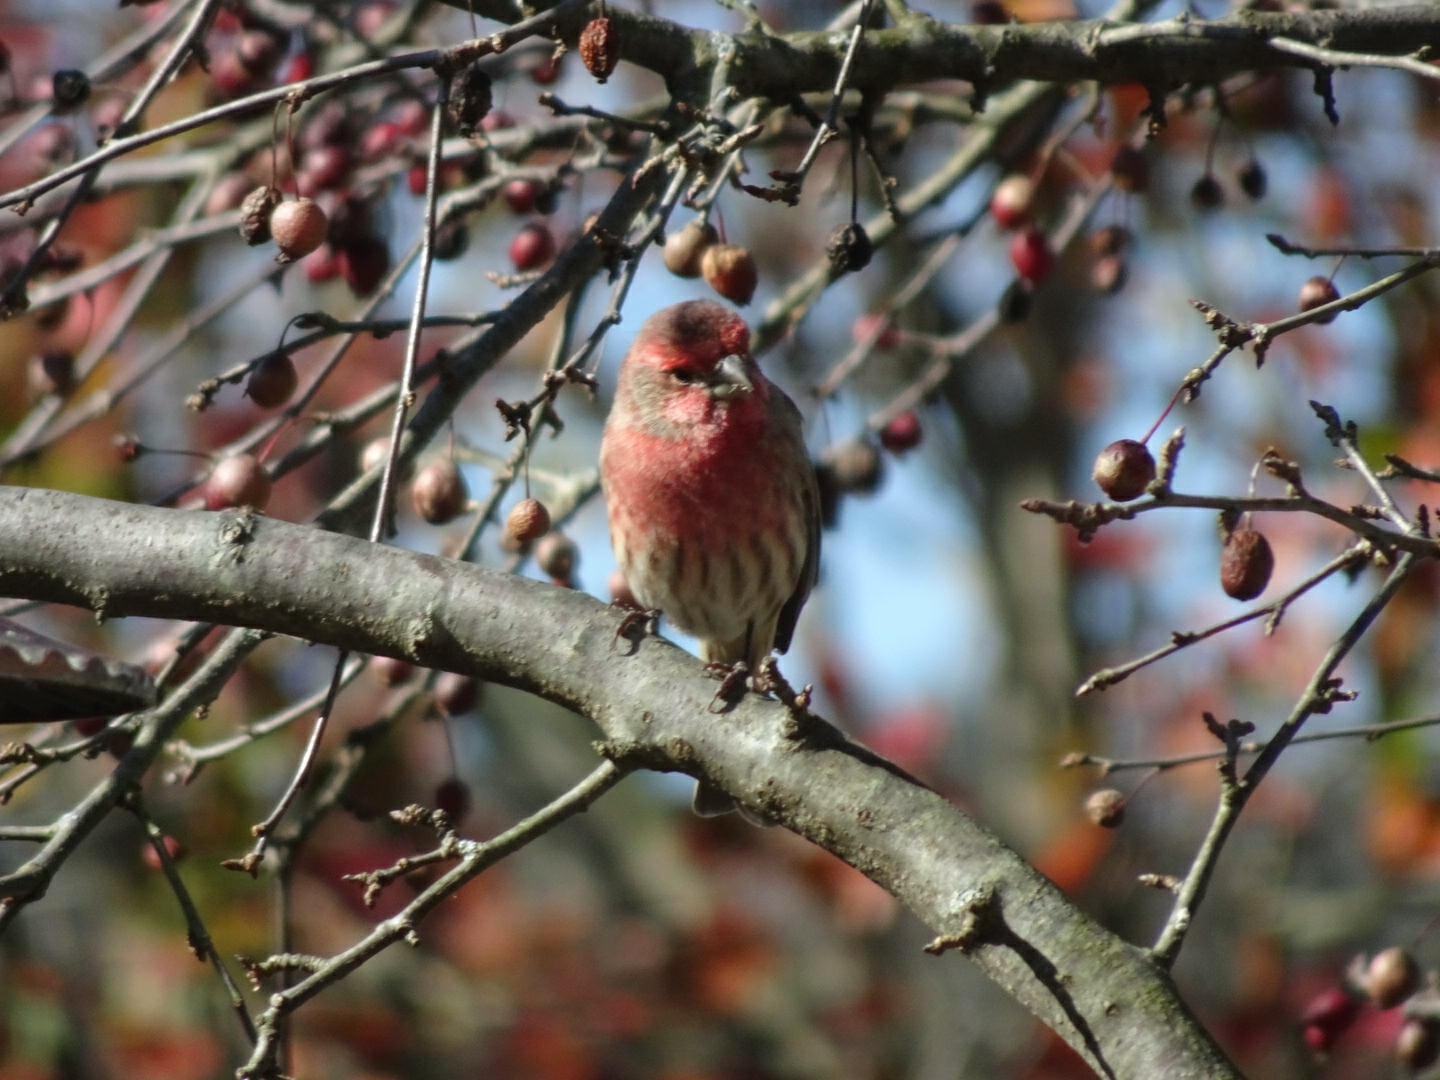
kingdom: Animalia
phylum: Chordata
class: Aves
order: Passeriformes
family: Fringillidae
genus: Haemorhous
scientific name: Haemorhous mexicanus
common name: House finch
